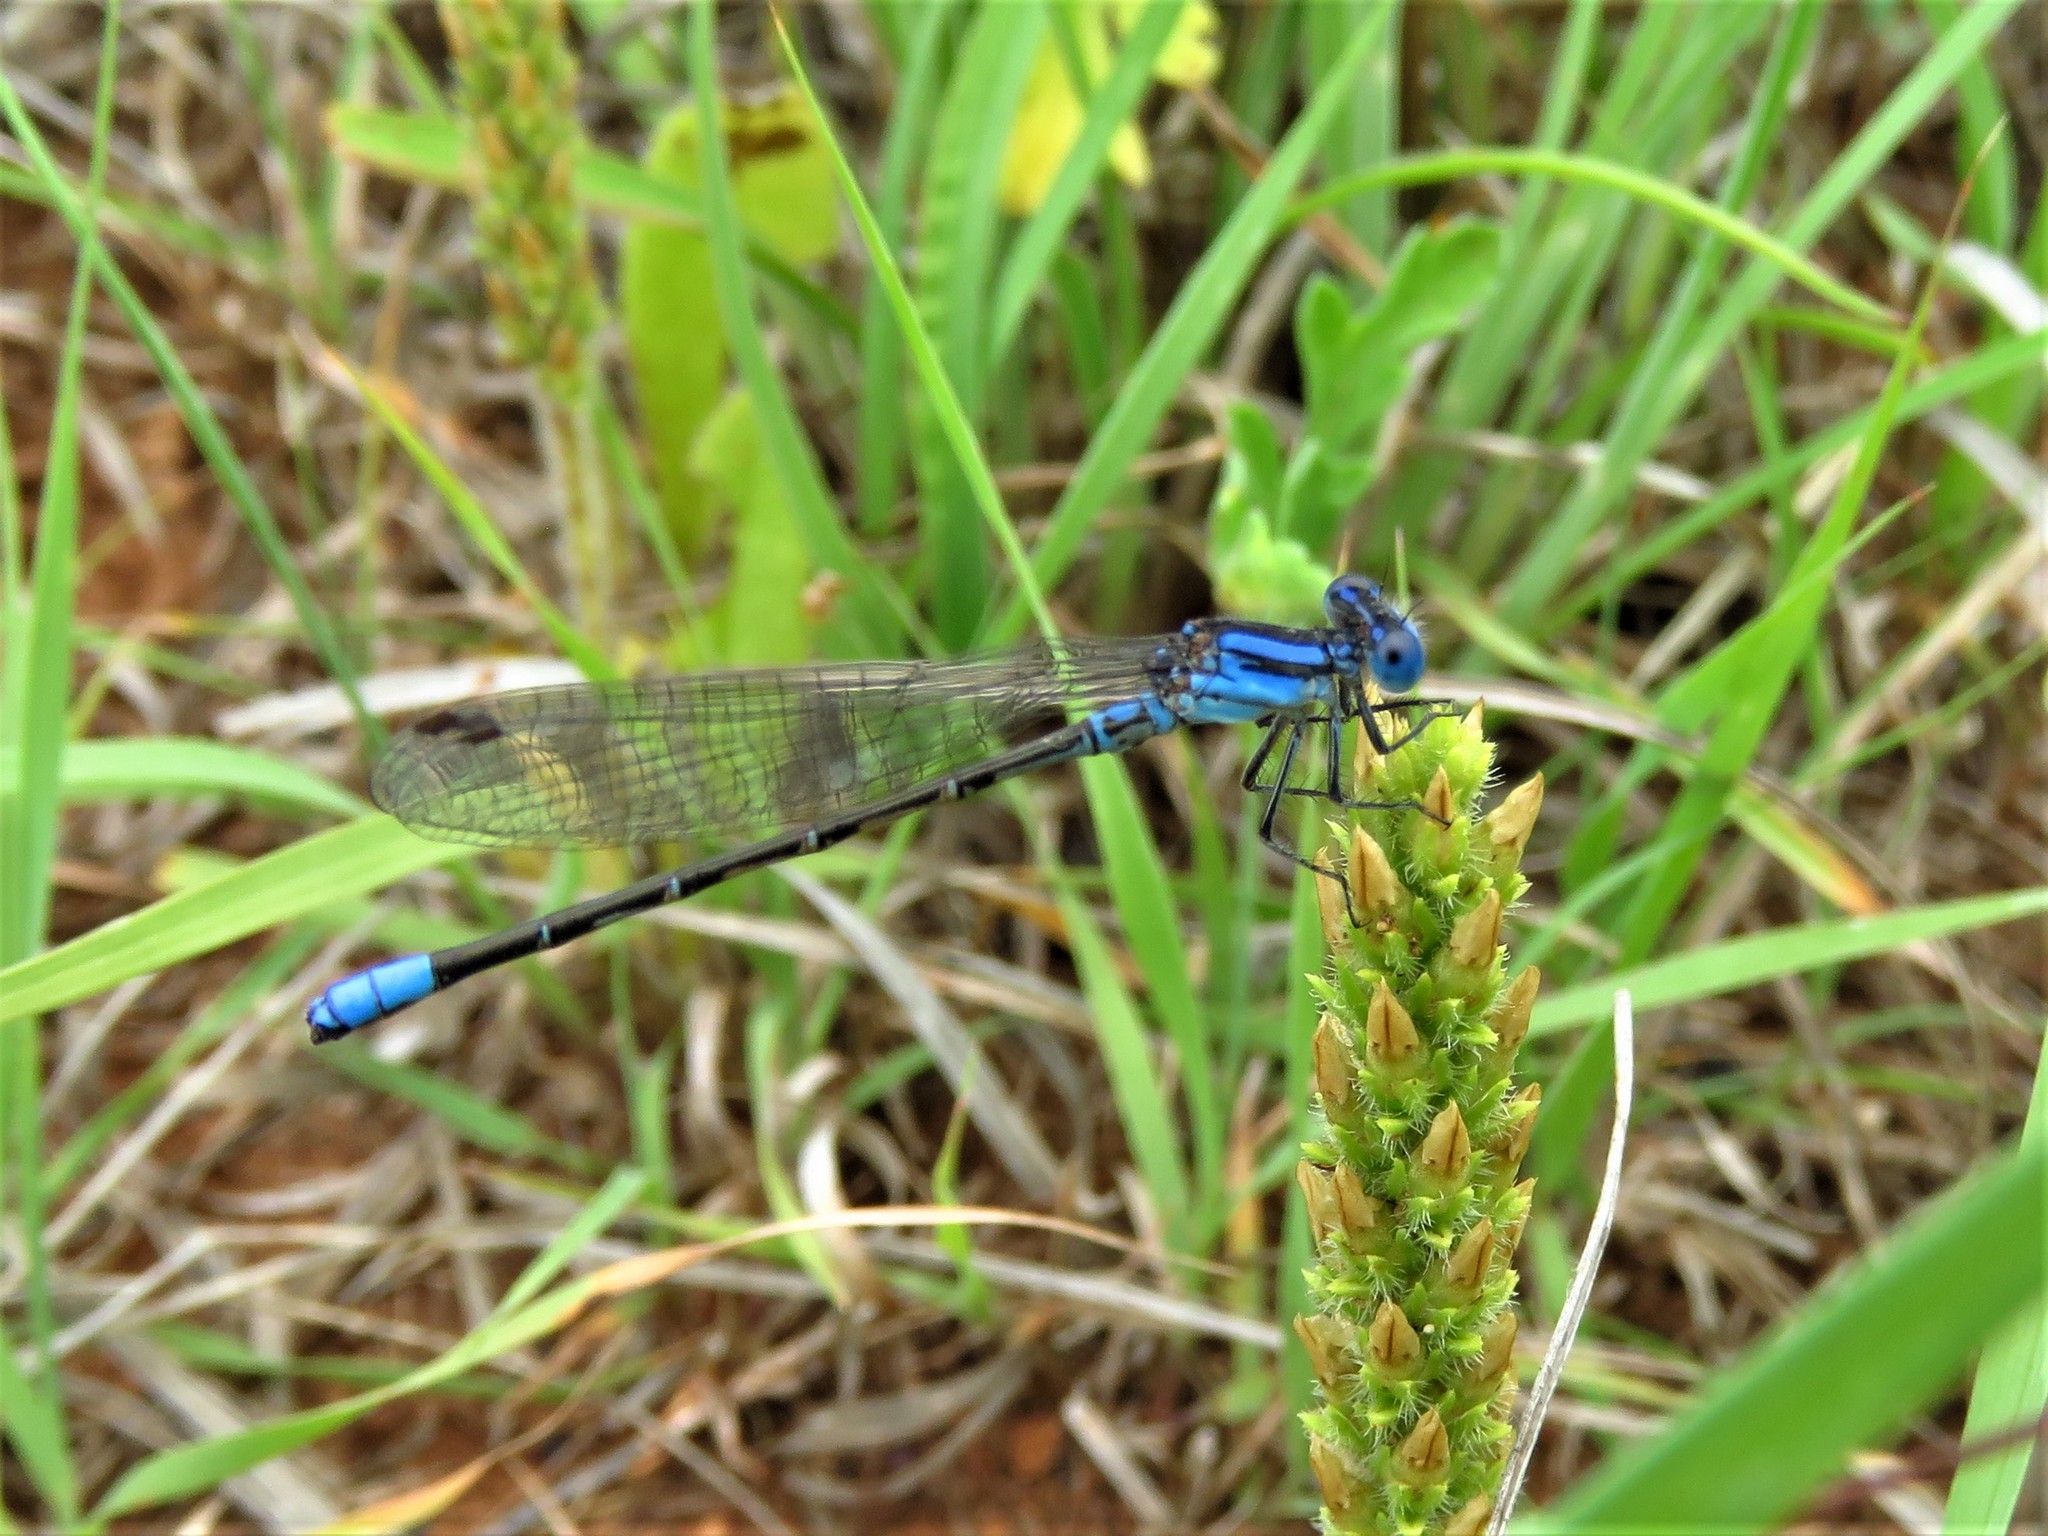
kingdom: Animalia
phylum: Arthropoda
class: Insecta
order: Odonata
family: Coenagrionidae
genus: Argia
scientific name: Argia alberta
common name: Paiute dancer
